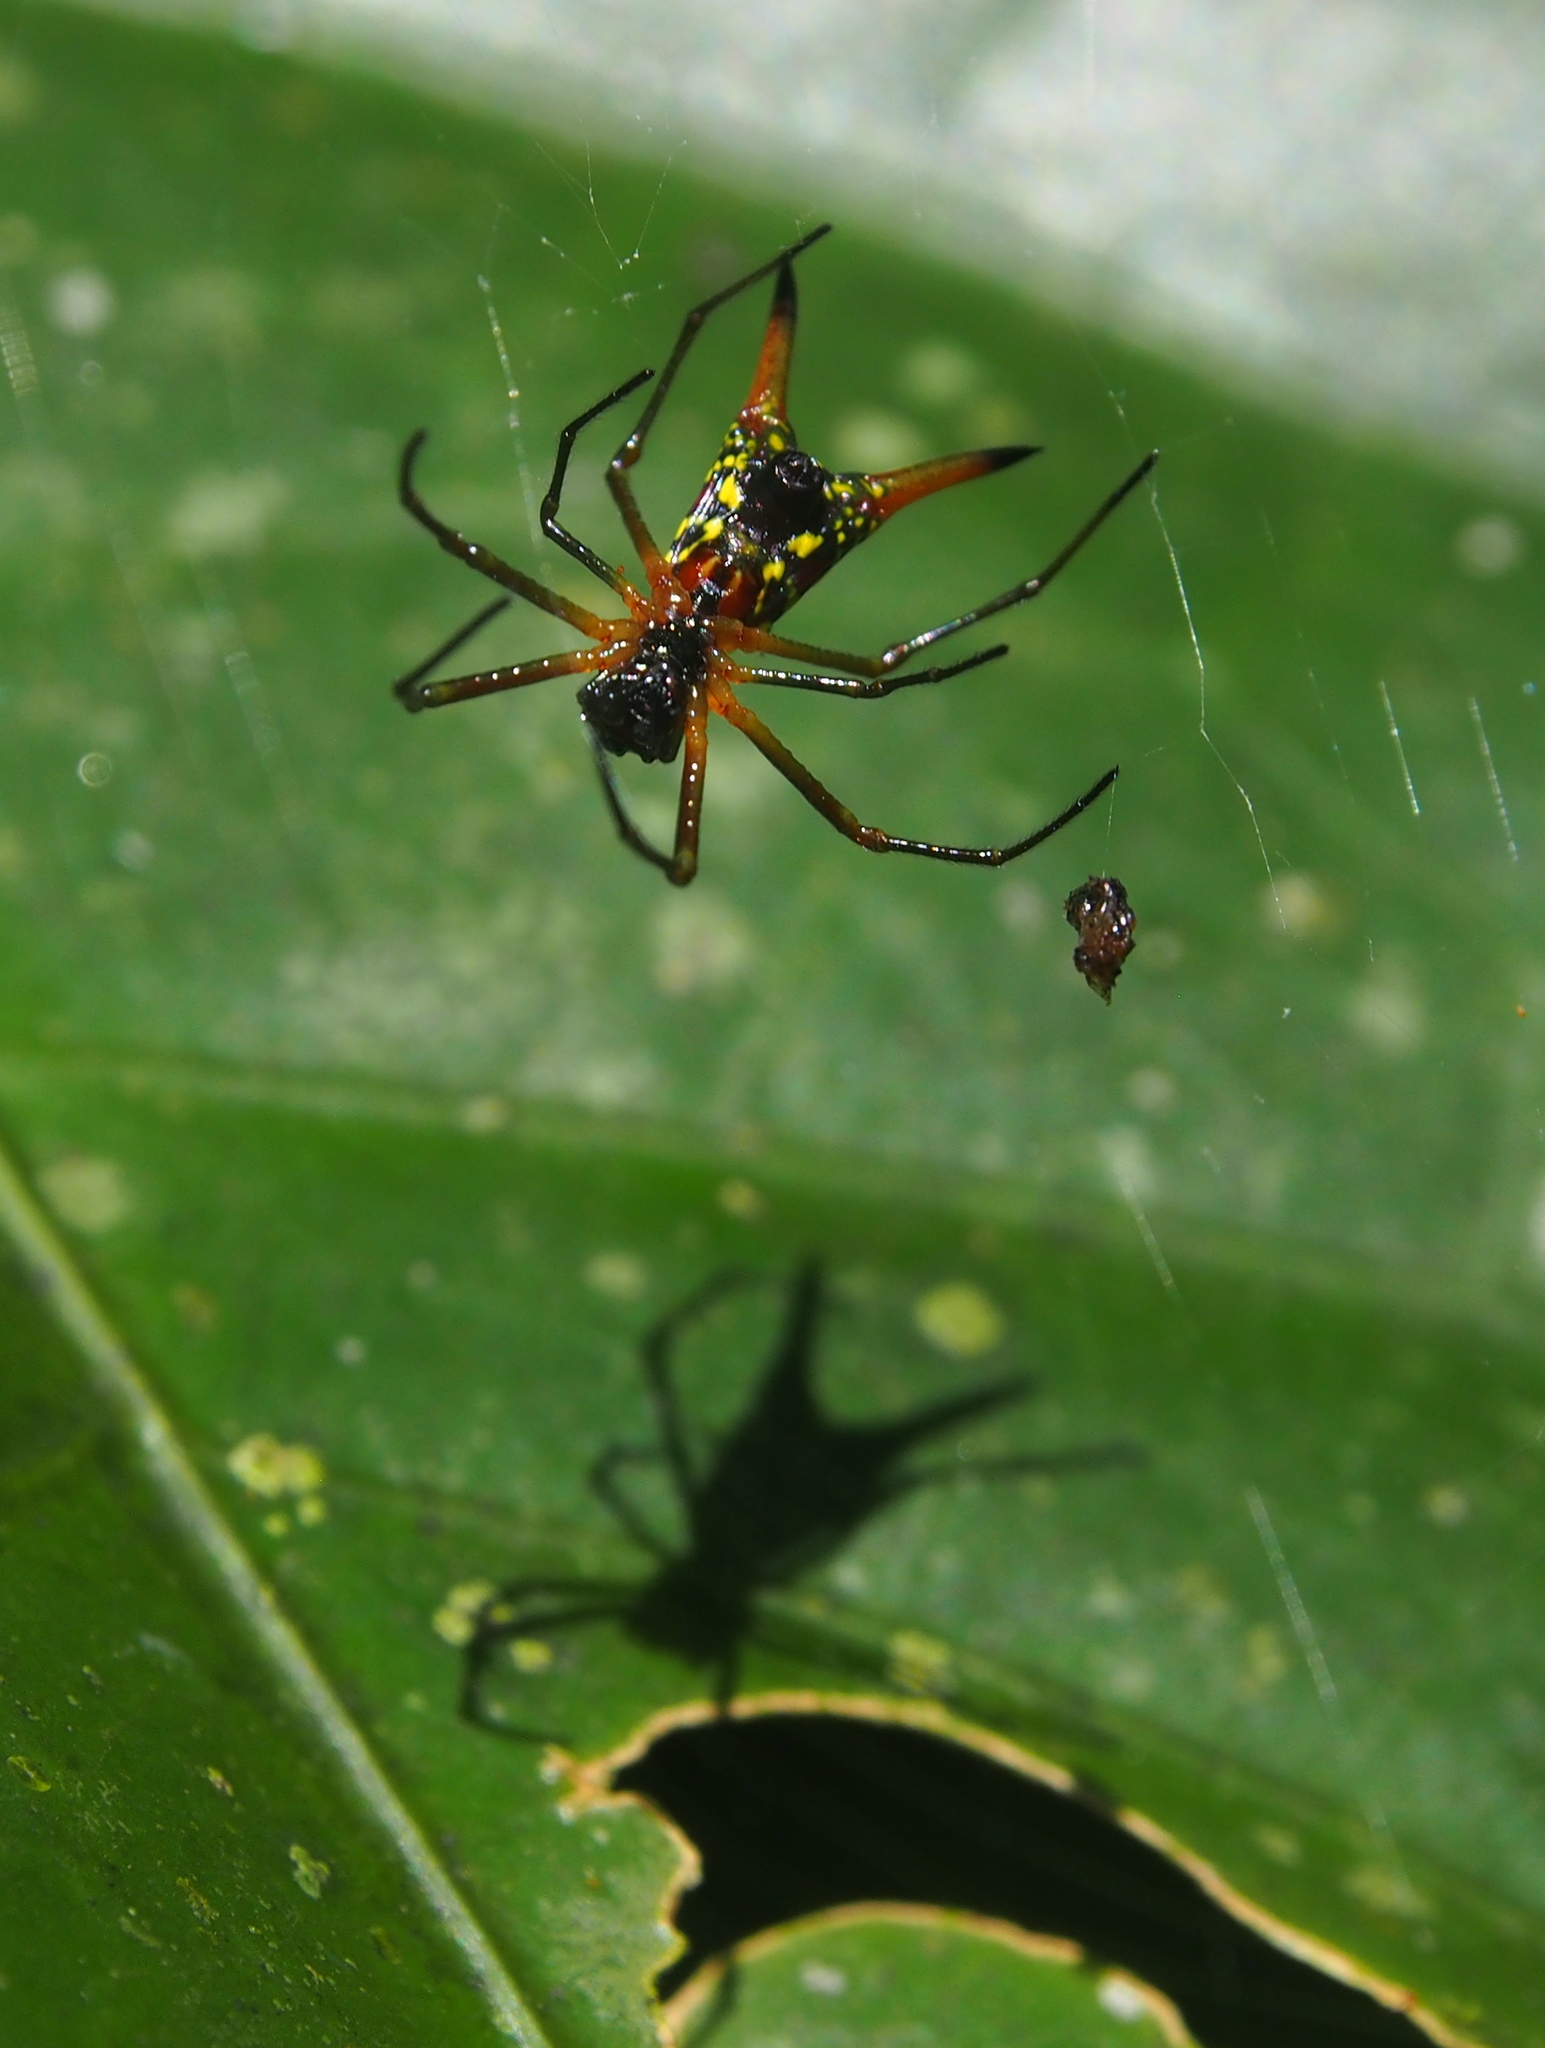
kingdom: Animalia
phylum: Arthropoda
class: Arachnida
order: Araneae
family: Araneidae
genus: Micrathena
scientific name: Micrathena brevipes
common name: Orb weavers
